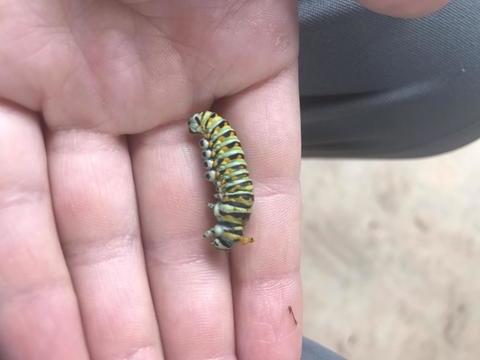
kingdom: Animalia
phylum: Arthropoda
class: Insecta
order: Lepidoptera
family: Papilionidae
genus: Papilio
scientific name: Papilio polyxenes
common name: Black swallowtail
